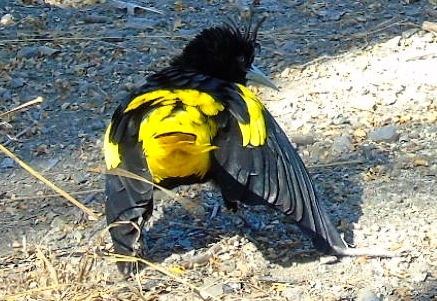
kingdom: Animalia
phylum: Chordata
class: Aves
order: Passeriformes
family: Icteridae
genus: Cacicus
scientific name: Cacicus melanicterus
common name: Yellow-winged cacique
